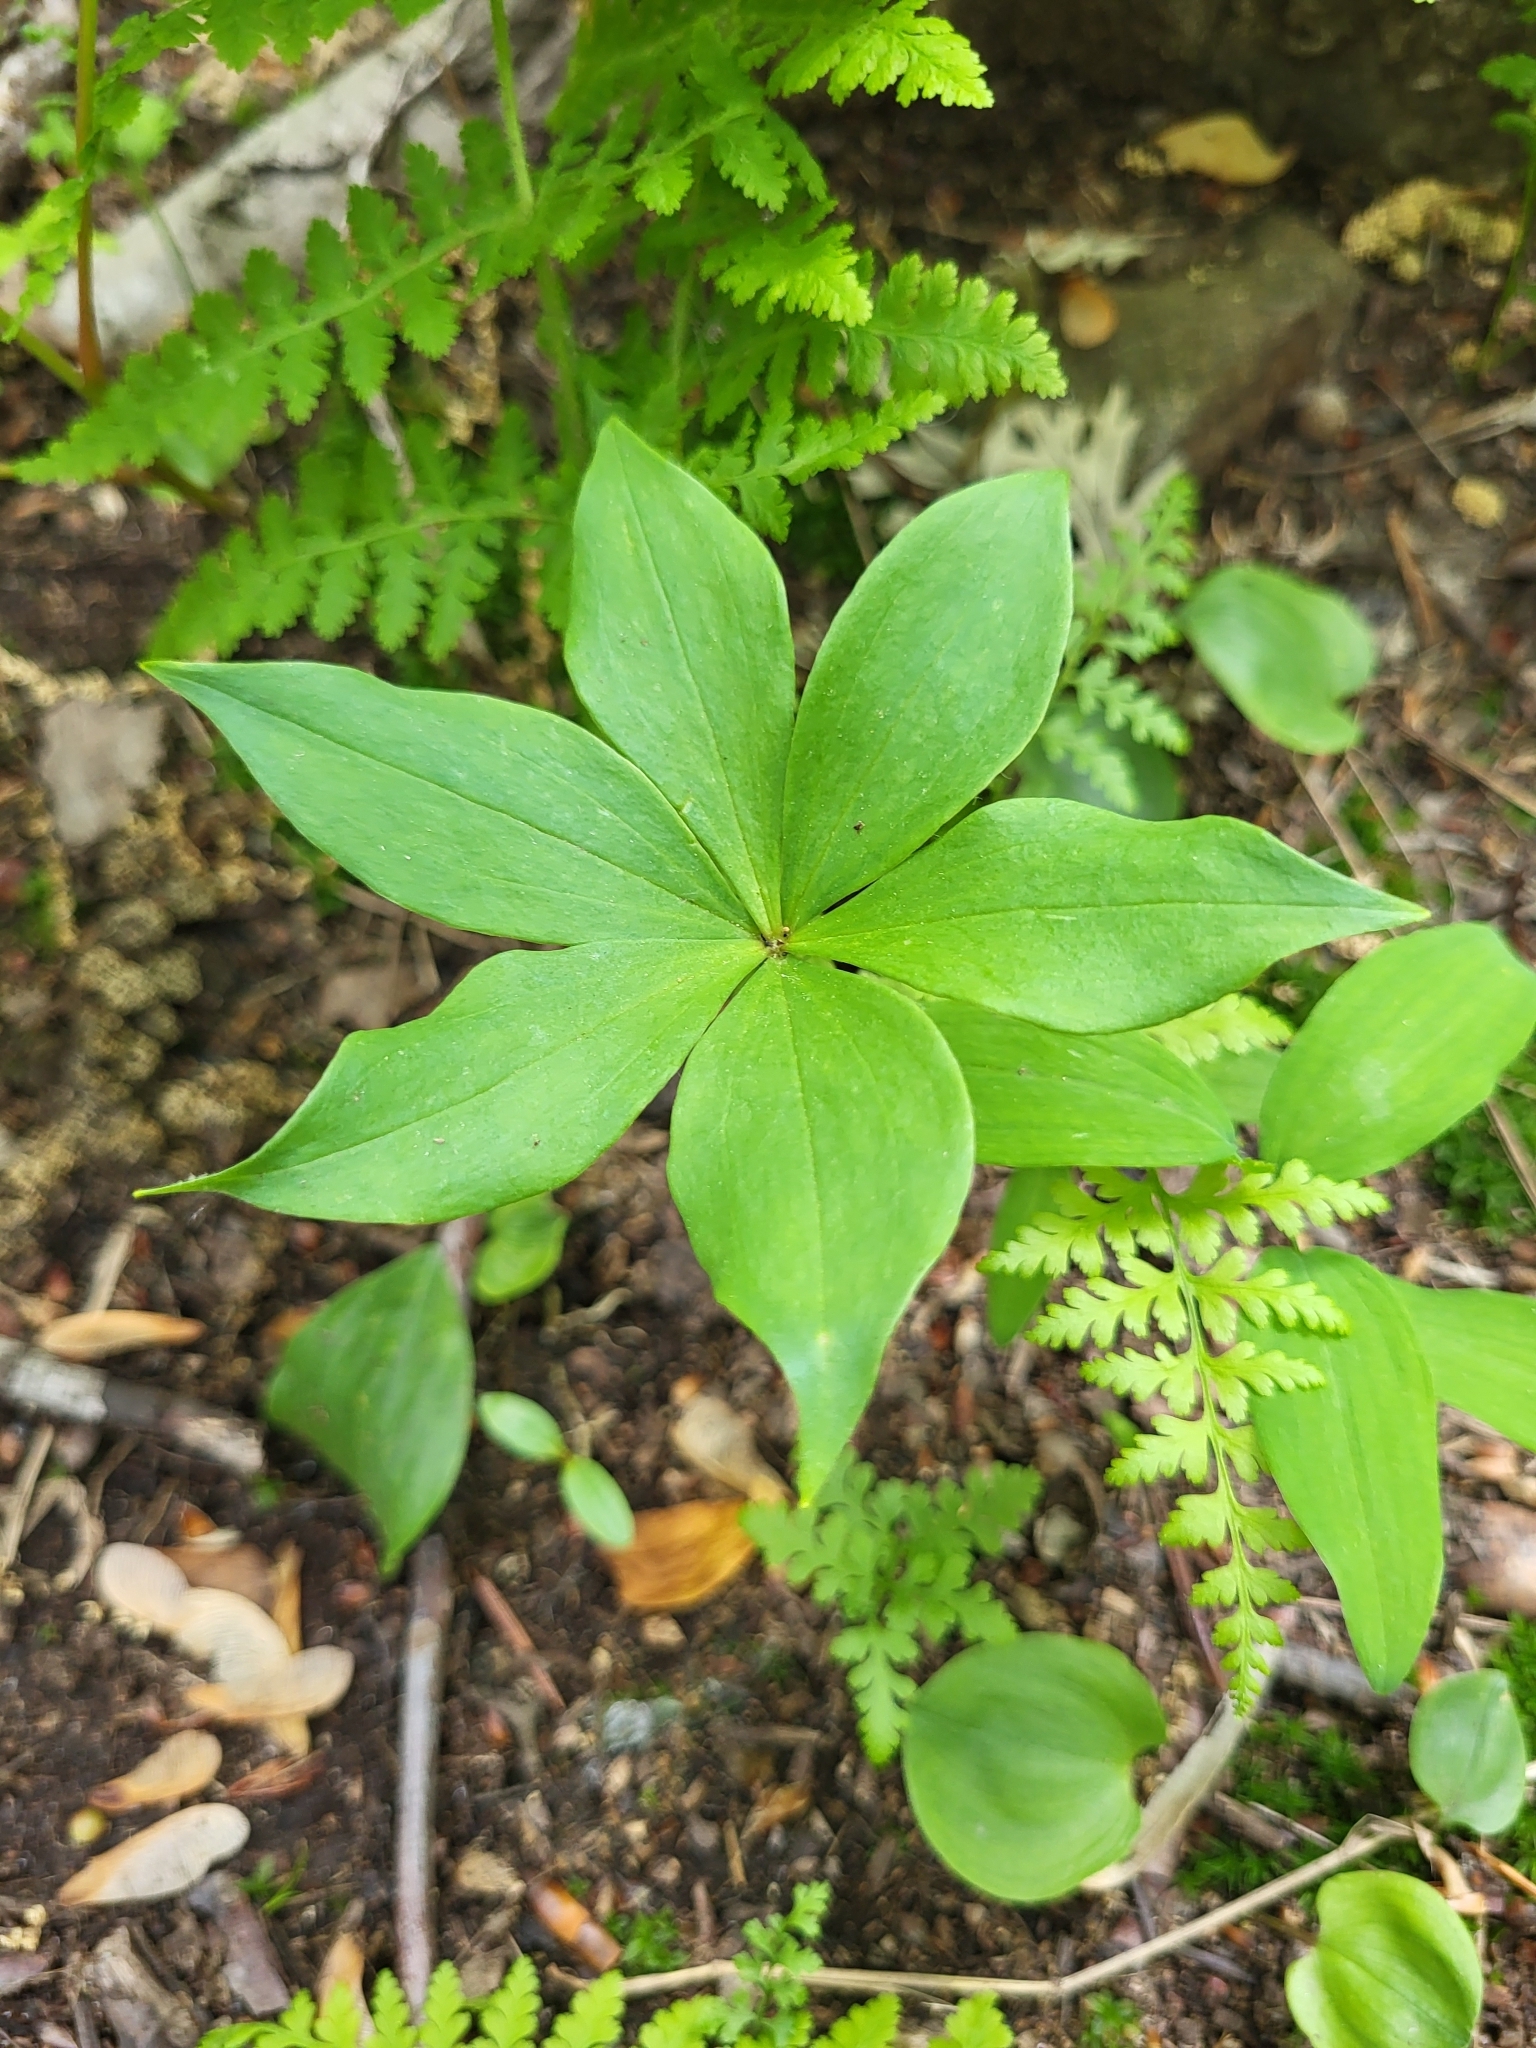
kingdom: Plantae
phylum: Tracheophyta
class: Liliopsida
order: Liliales
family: Liliaceae
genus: Medeola
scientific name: Medeola virginiana
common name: Indian cucumber-root
